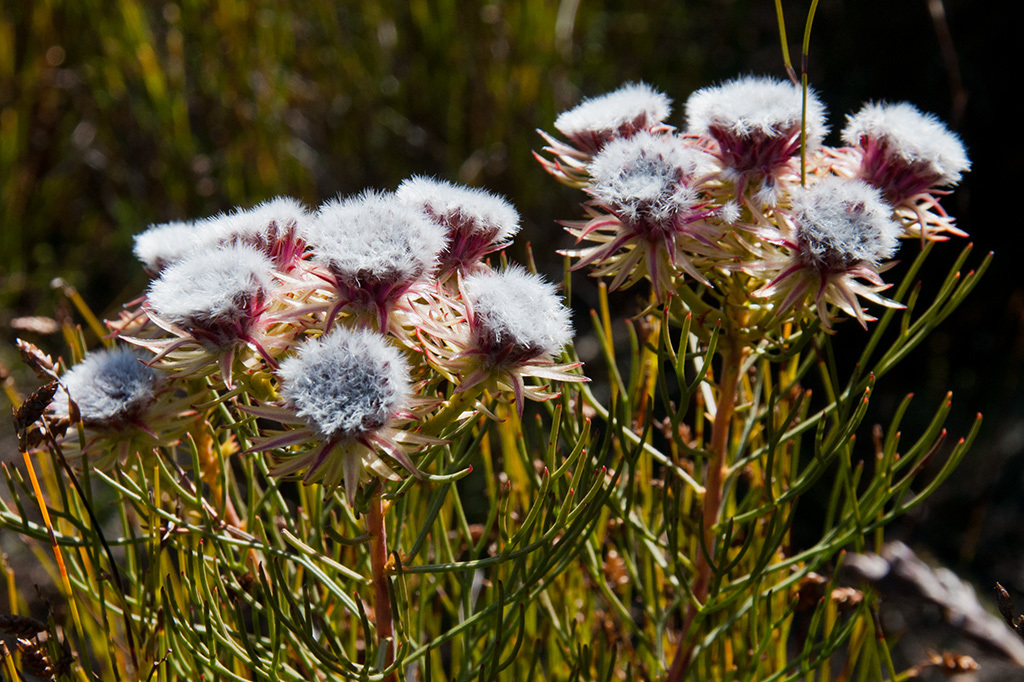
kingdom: Plantae
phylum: Tracheophyta
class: Magnoliopsida
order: Proteales
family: Proteaceae
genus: Serruria
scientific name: Serruria phylicoides
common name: Bearded spiderhead
